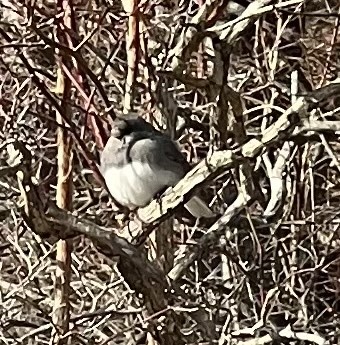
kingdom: Animalia
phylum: Chordata
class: Aves
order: Passeriformes
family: Passerellidae
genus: Junco
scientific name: Junco hyemalis
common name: Dark-eyed junco
